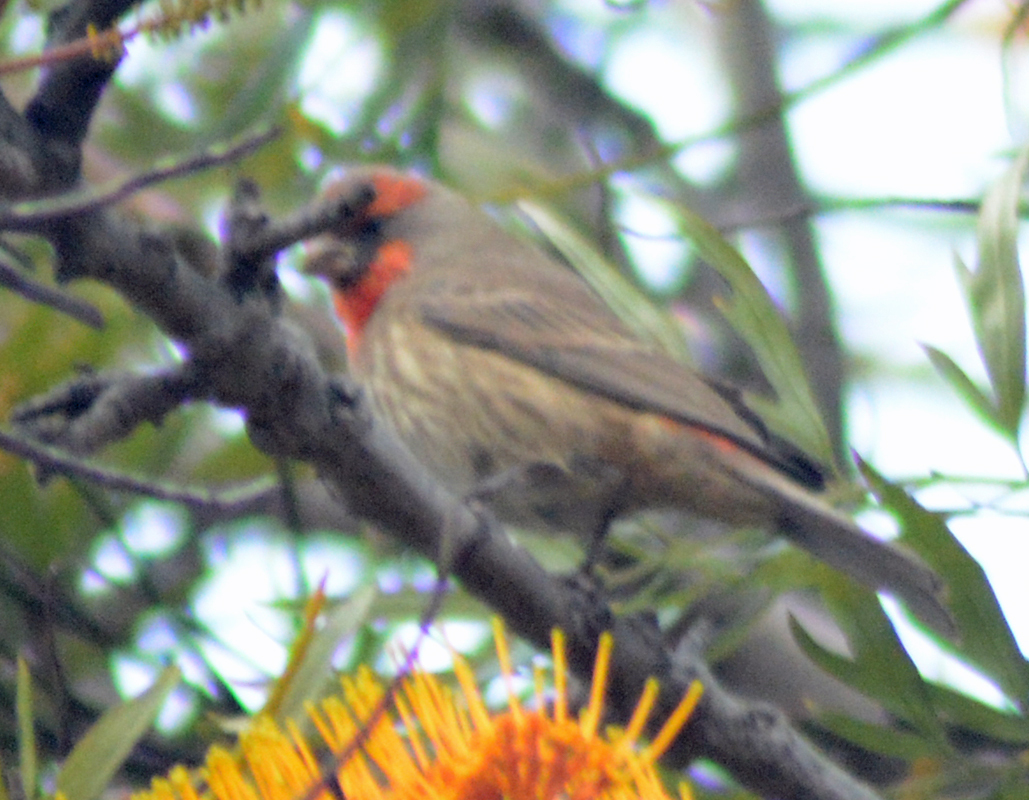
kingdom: Animalia
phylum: Chordata
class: Aves
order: Passeriformes
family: Fringillidae
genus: Haemorhous
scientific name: Haemorhous mexicanus
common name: House finch
